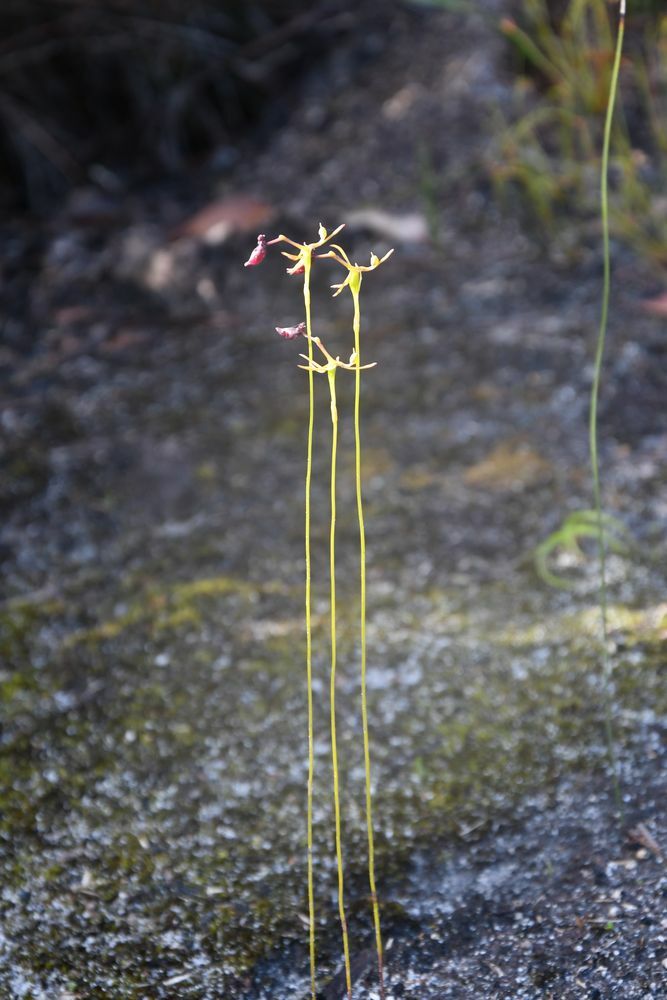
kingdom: Plantae
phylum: Tracheophyta
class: Liliopsida
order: Asparagales
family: Orchidaceae
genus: Drakaea
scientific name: Drakaea thynniphila
